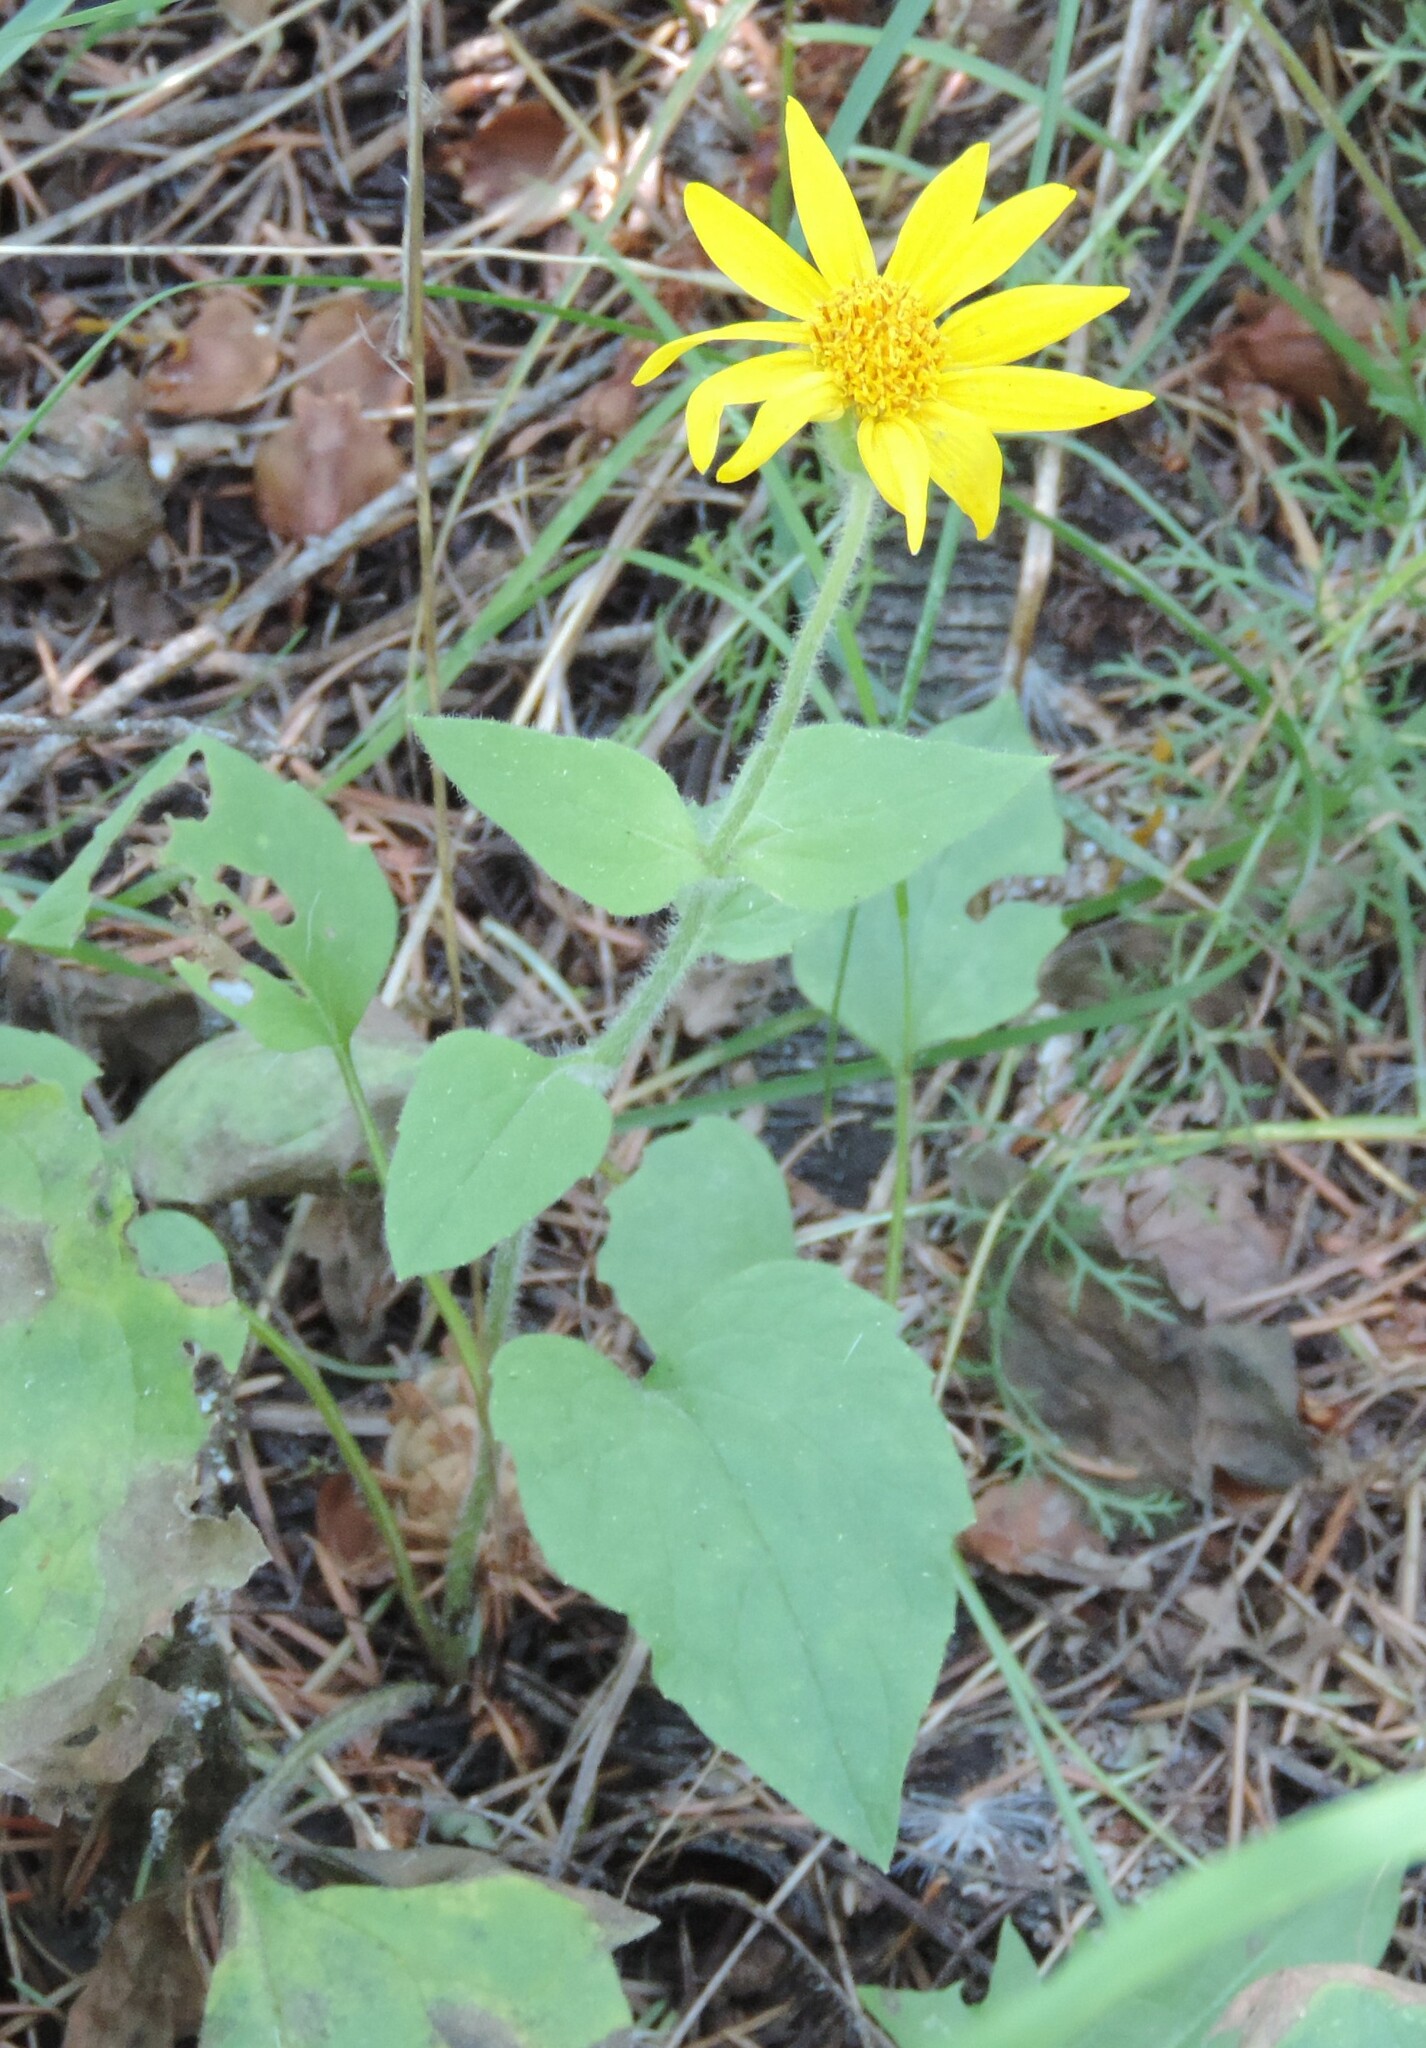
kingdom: Plantae
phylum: Tracheophyta
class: Magnoliopsida
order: Asterales
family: Asteraceae
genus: Arnica
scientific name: Arnica cordifolia
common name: Heart-leaf arnica
